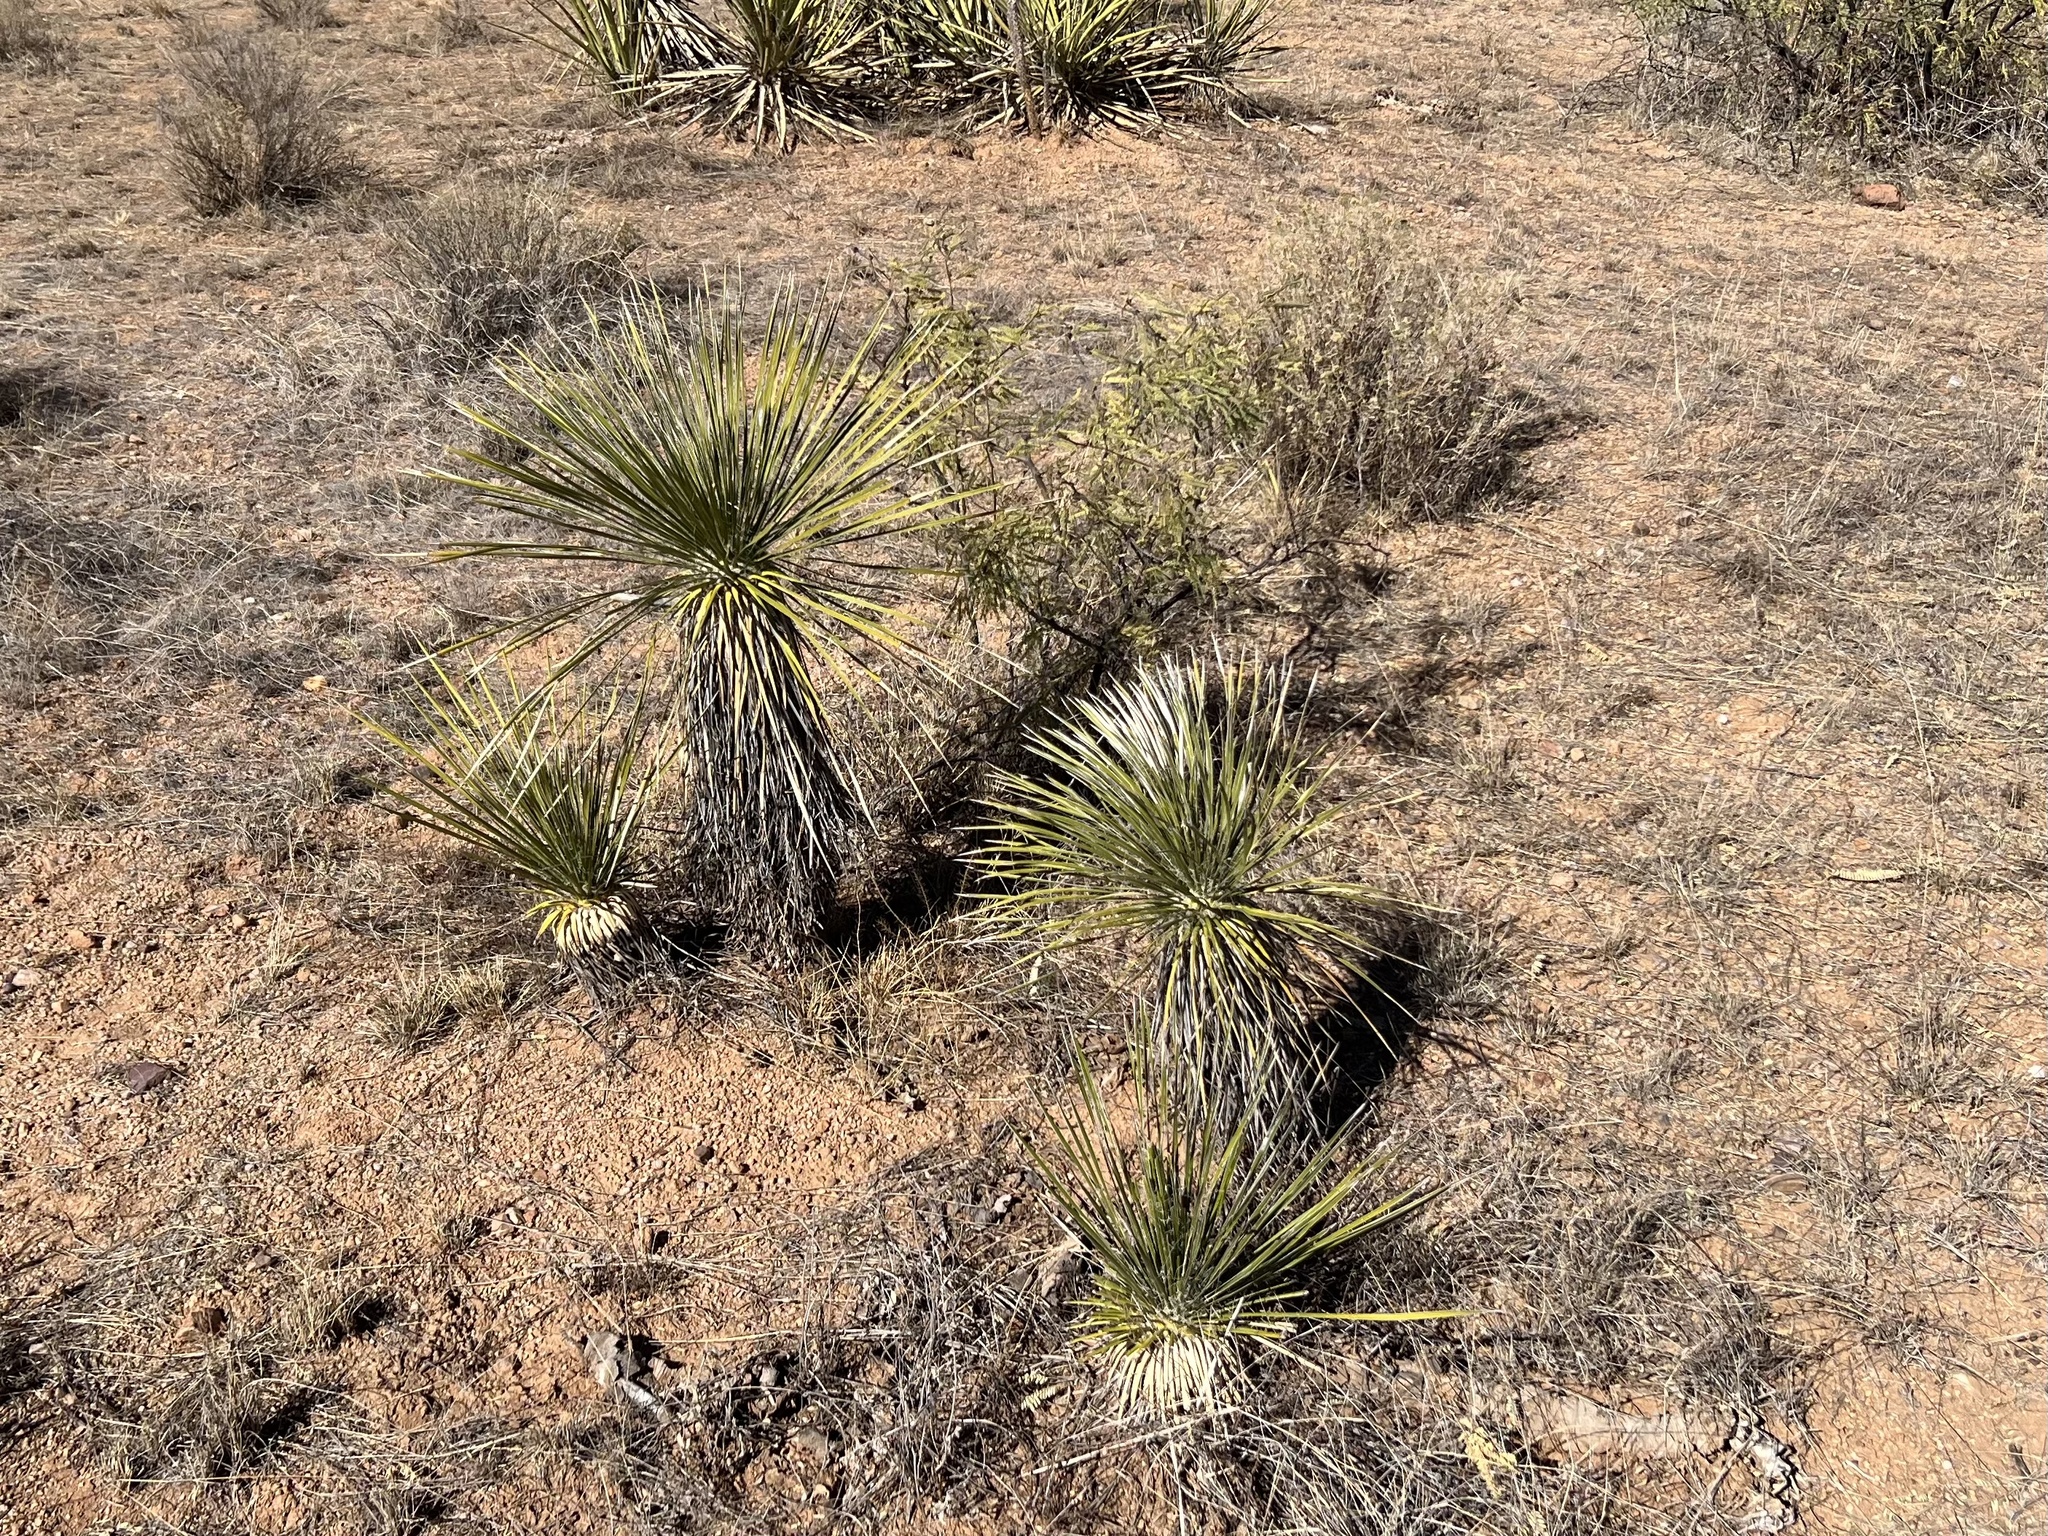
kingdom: Plantae
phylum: Tracheophyta
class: Liliopsida
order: Asparagales
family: Asparagaceae
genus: Yucca
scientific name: Yucca elata
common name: Palmella
